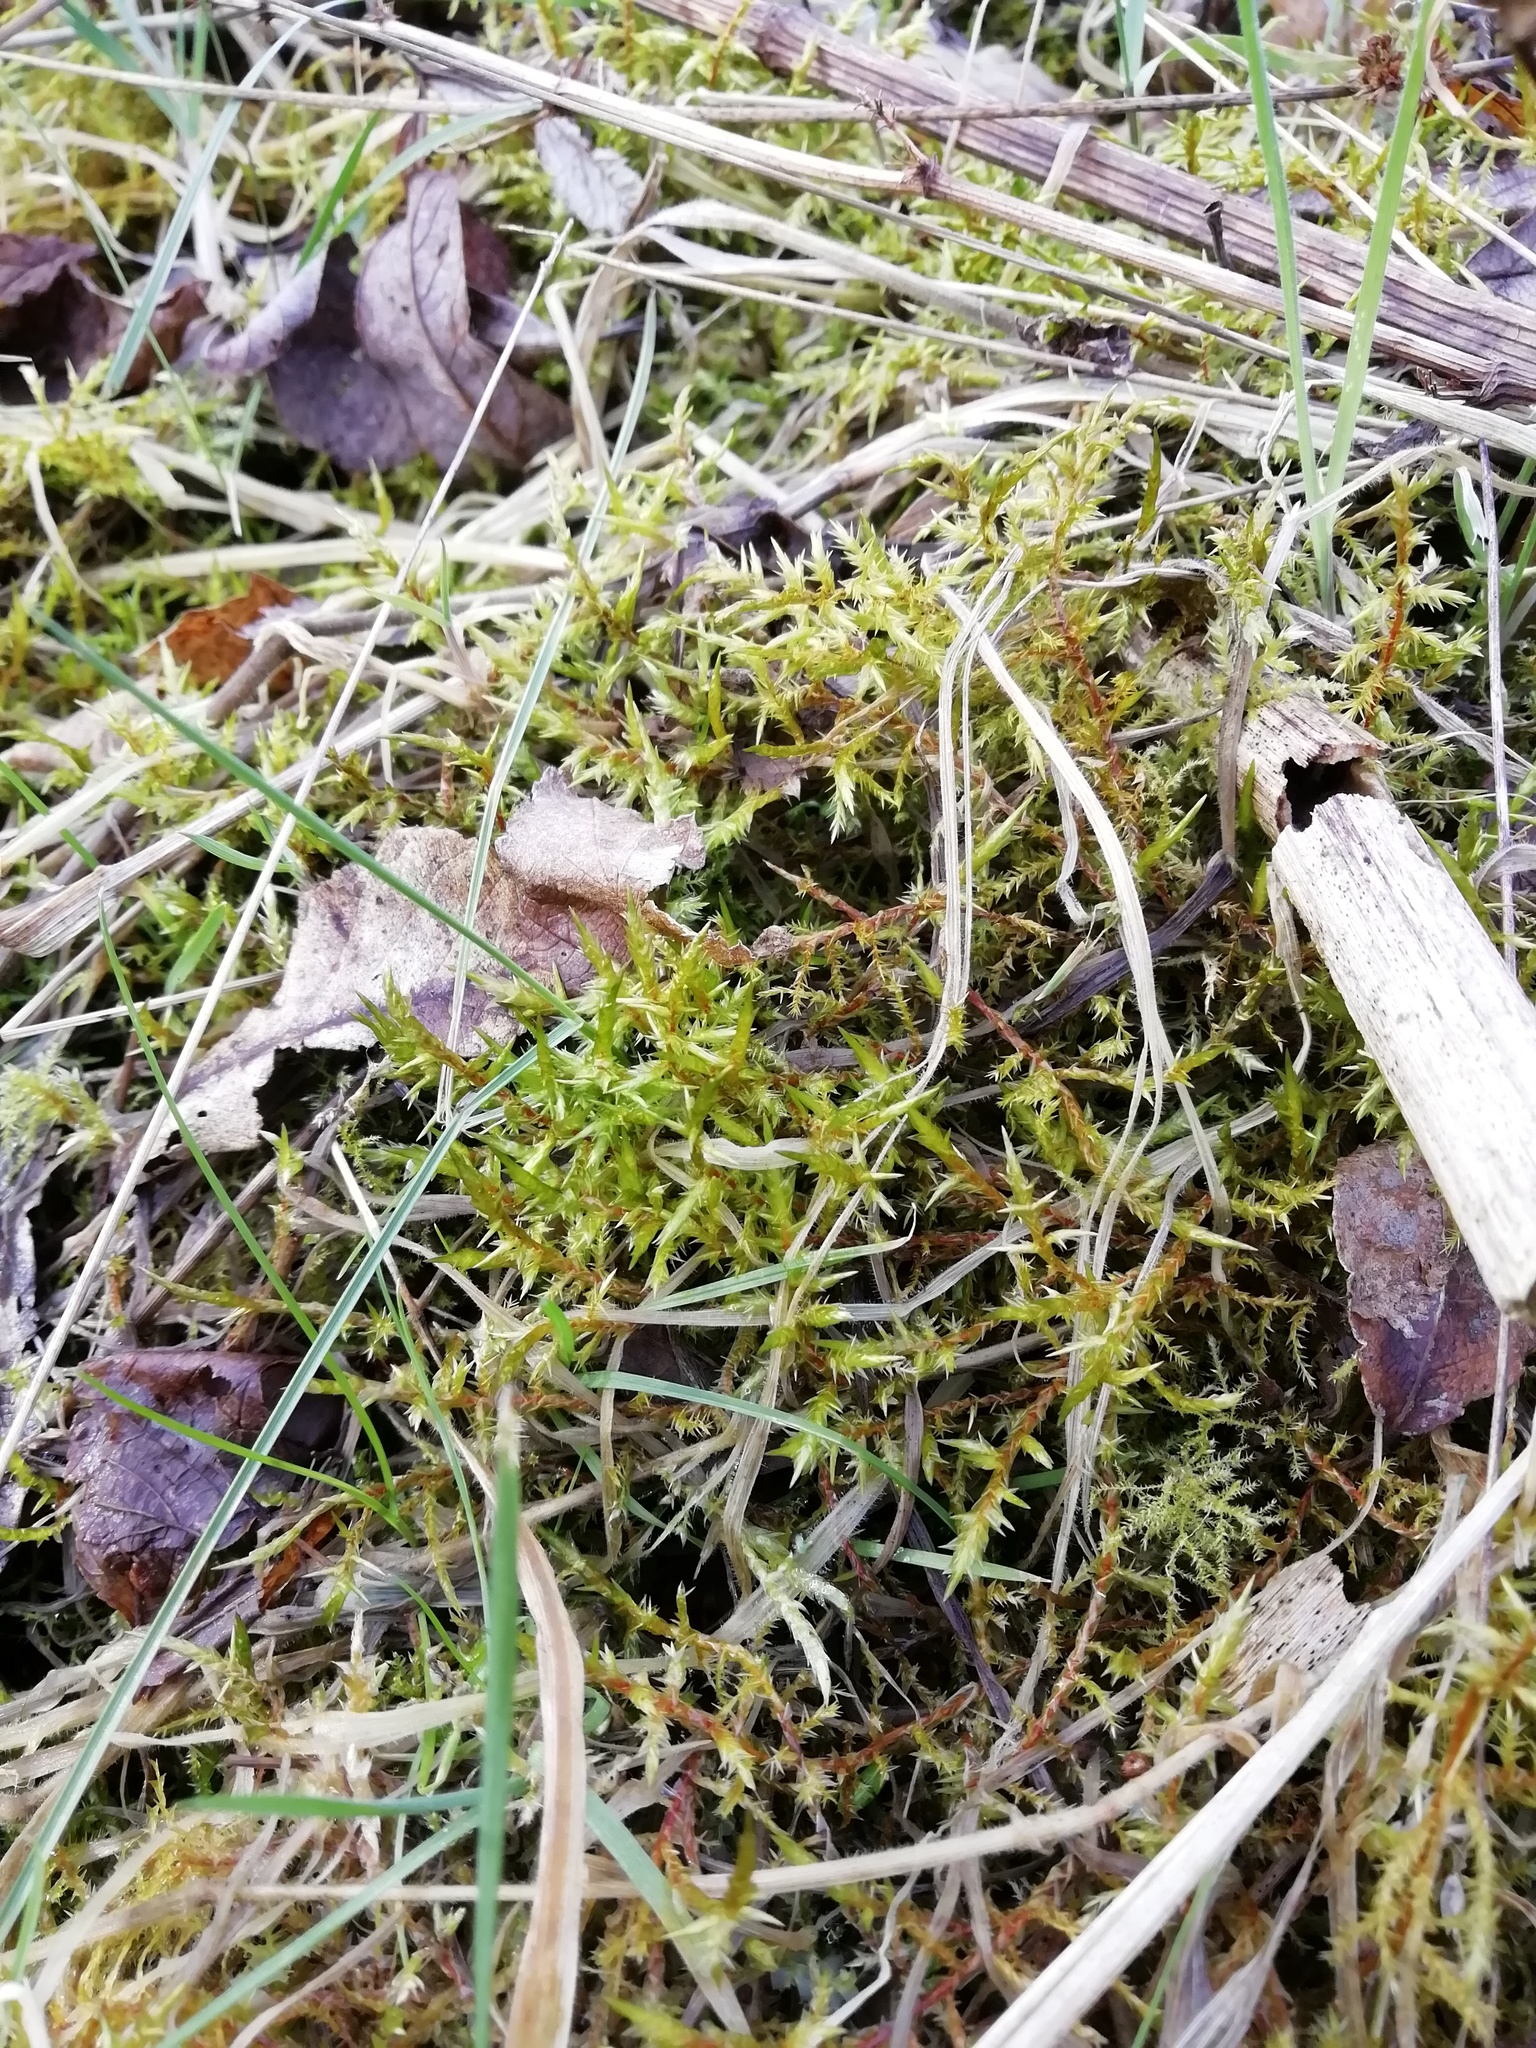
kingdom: Plantae
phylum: Bryophyta
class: Bryopsida
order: Hypnales
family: Pylaisiaceae
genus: Calliergonella
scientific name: Calliergonella cuspidata
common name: Common large wetland moss
